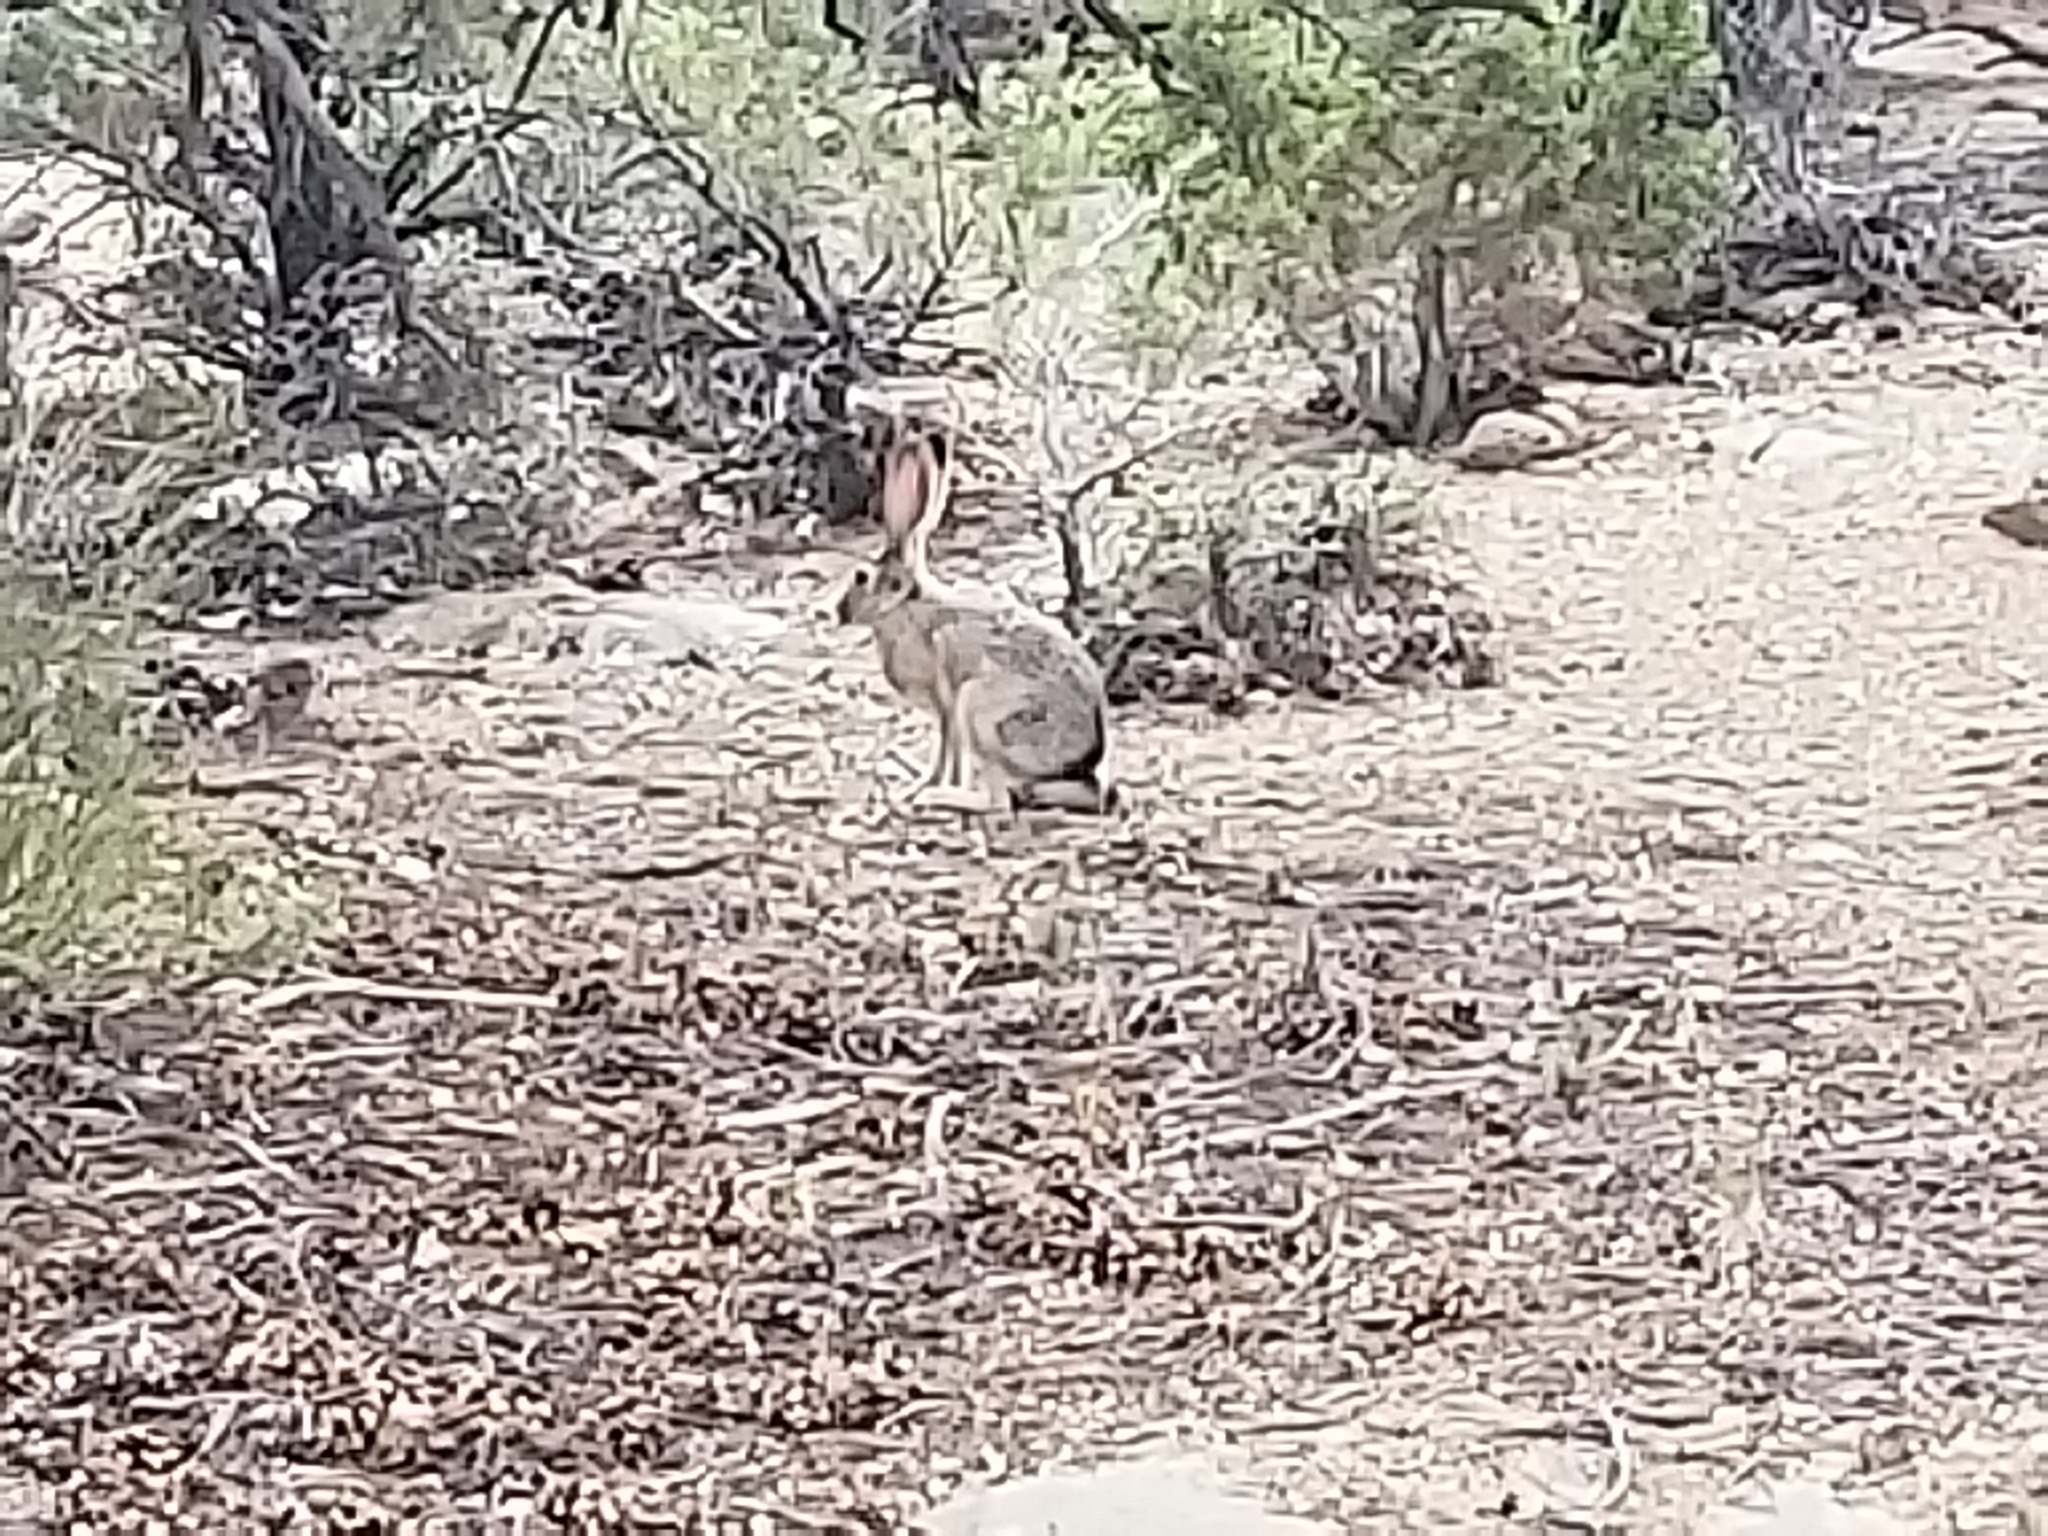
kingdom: Animalia
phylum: Chordata
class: Mammalia
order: Lagomorpha
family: Leporidae
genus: Lepus
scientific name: Lepus californicus
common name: Black-tailed jackrabbit
